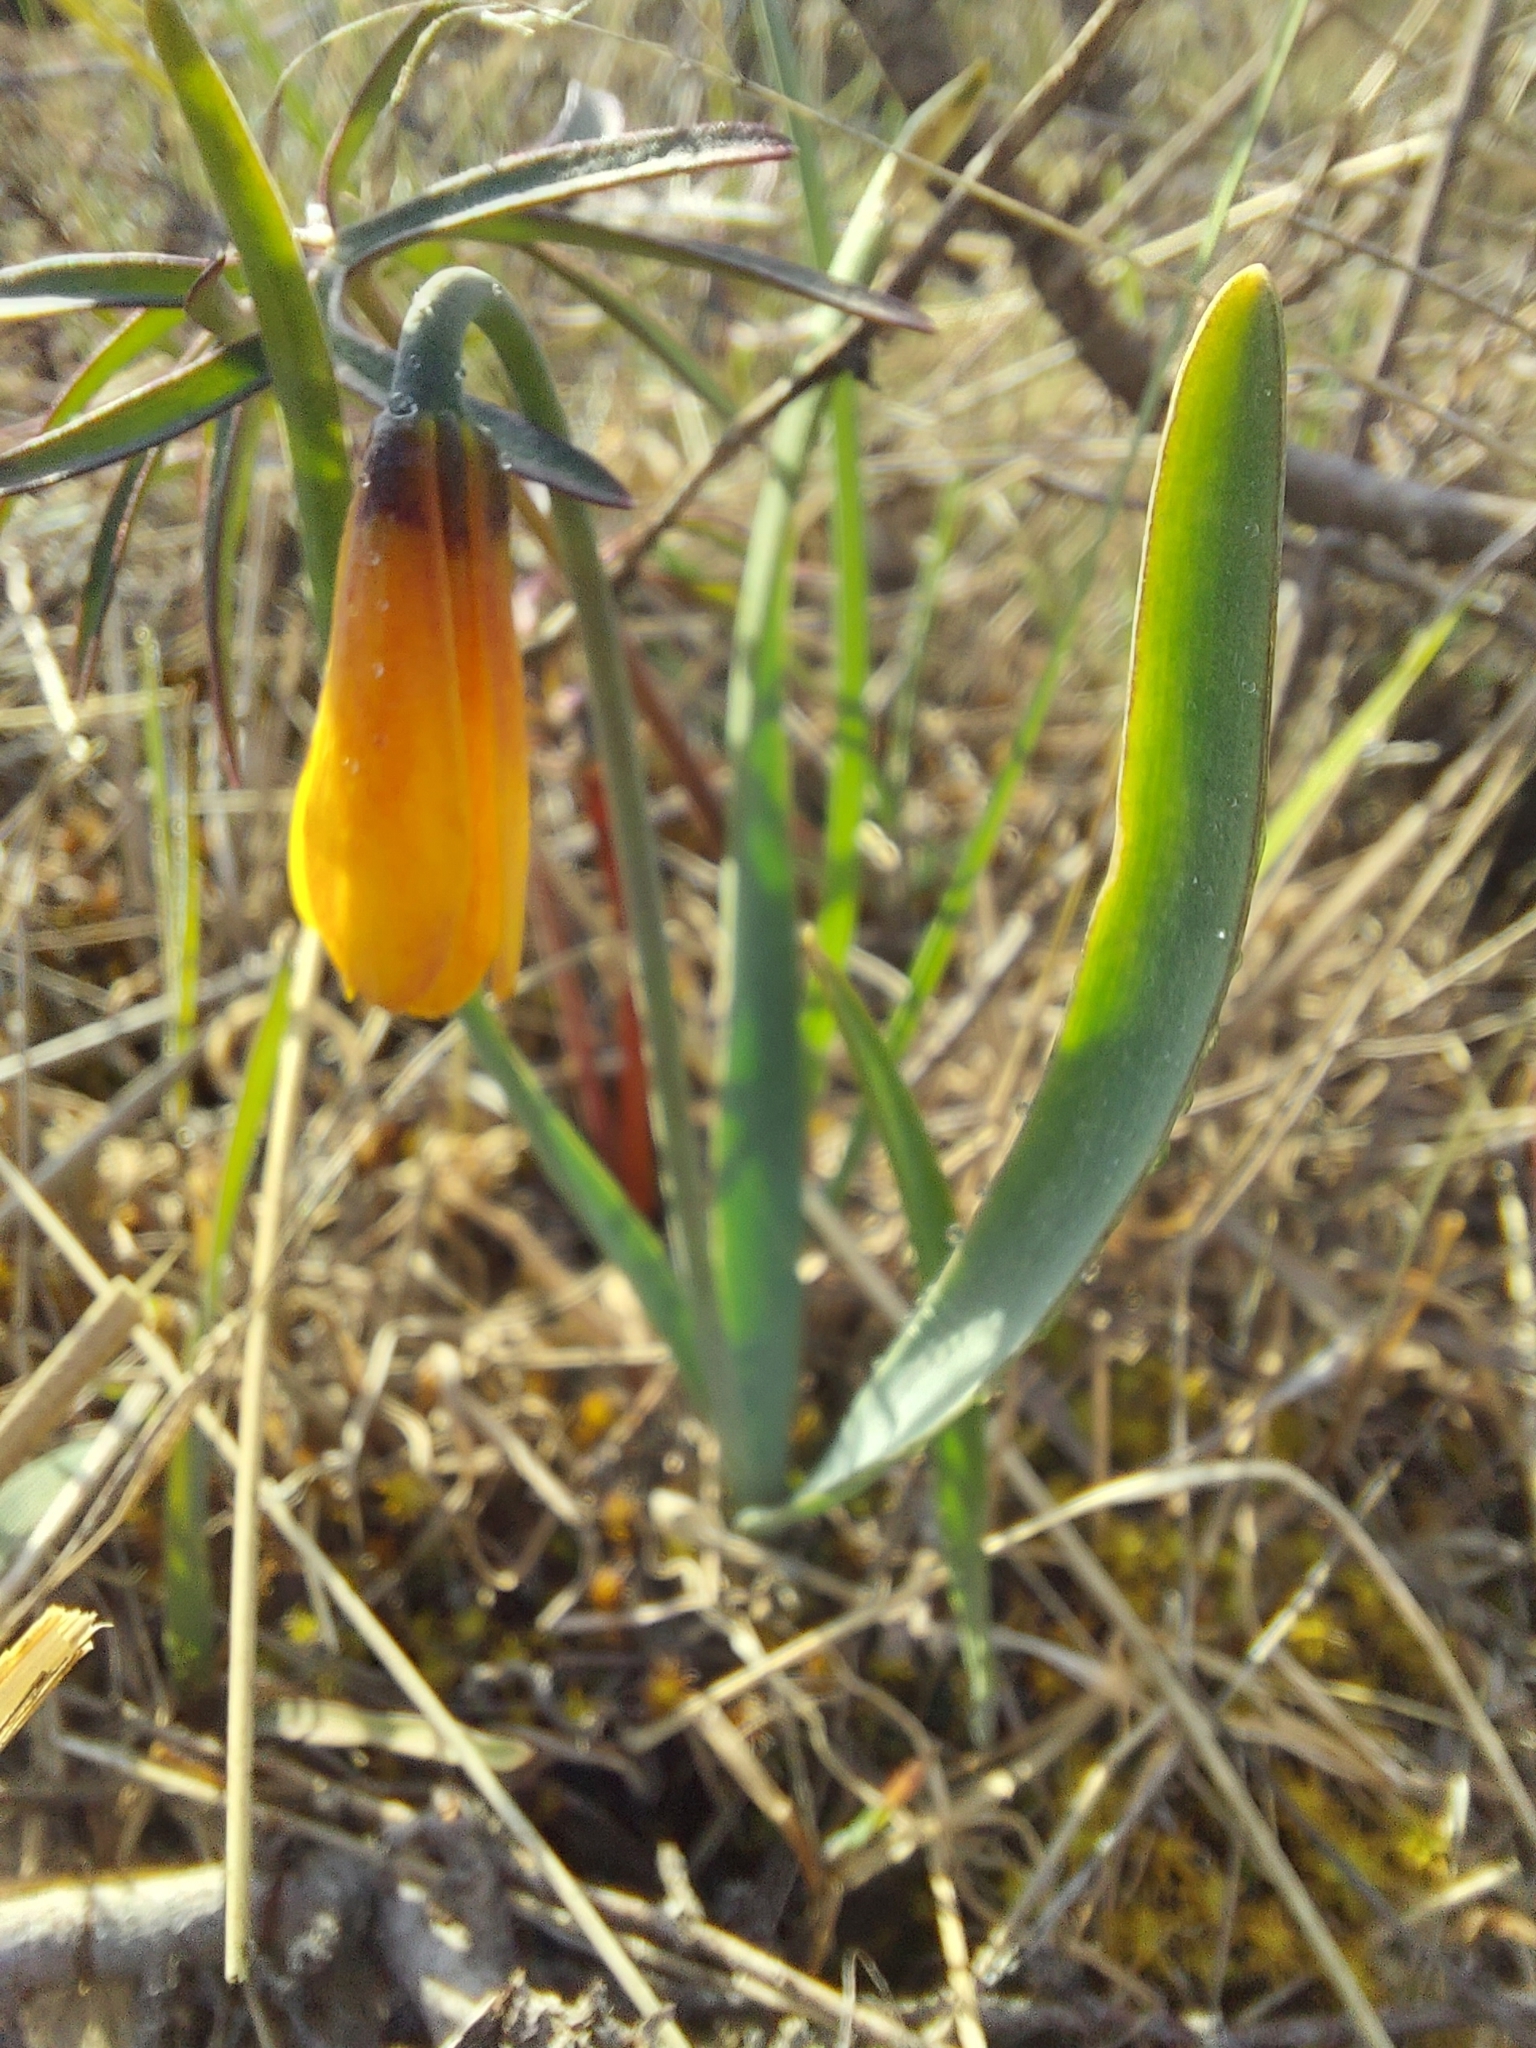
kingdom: Plantae
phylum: Tracheophyta
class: Liliopsida
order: Liliales
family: Liliaceae
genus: Fritillaria
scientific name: Fritillaria pudica
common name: Yellow fritillary
